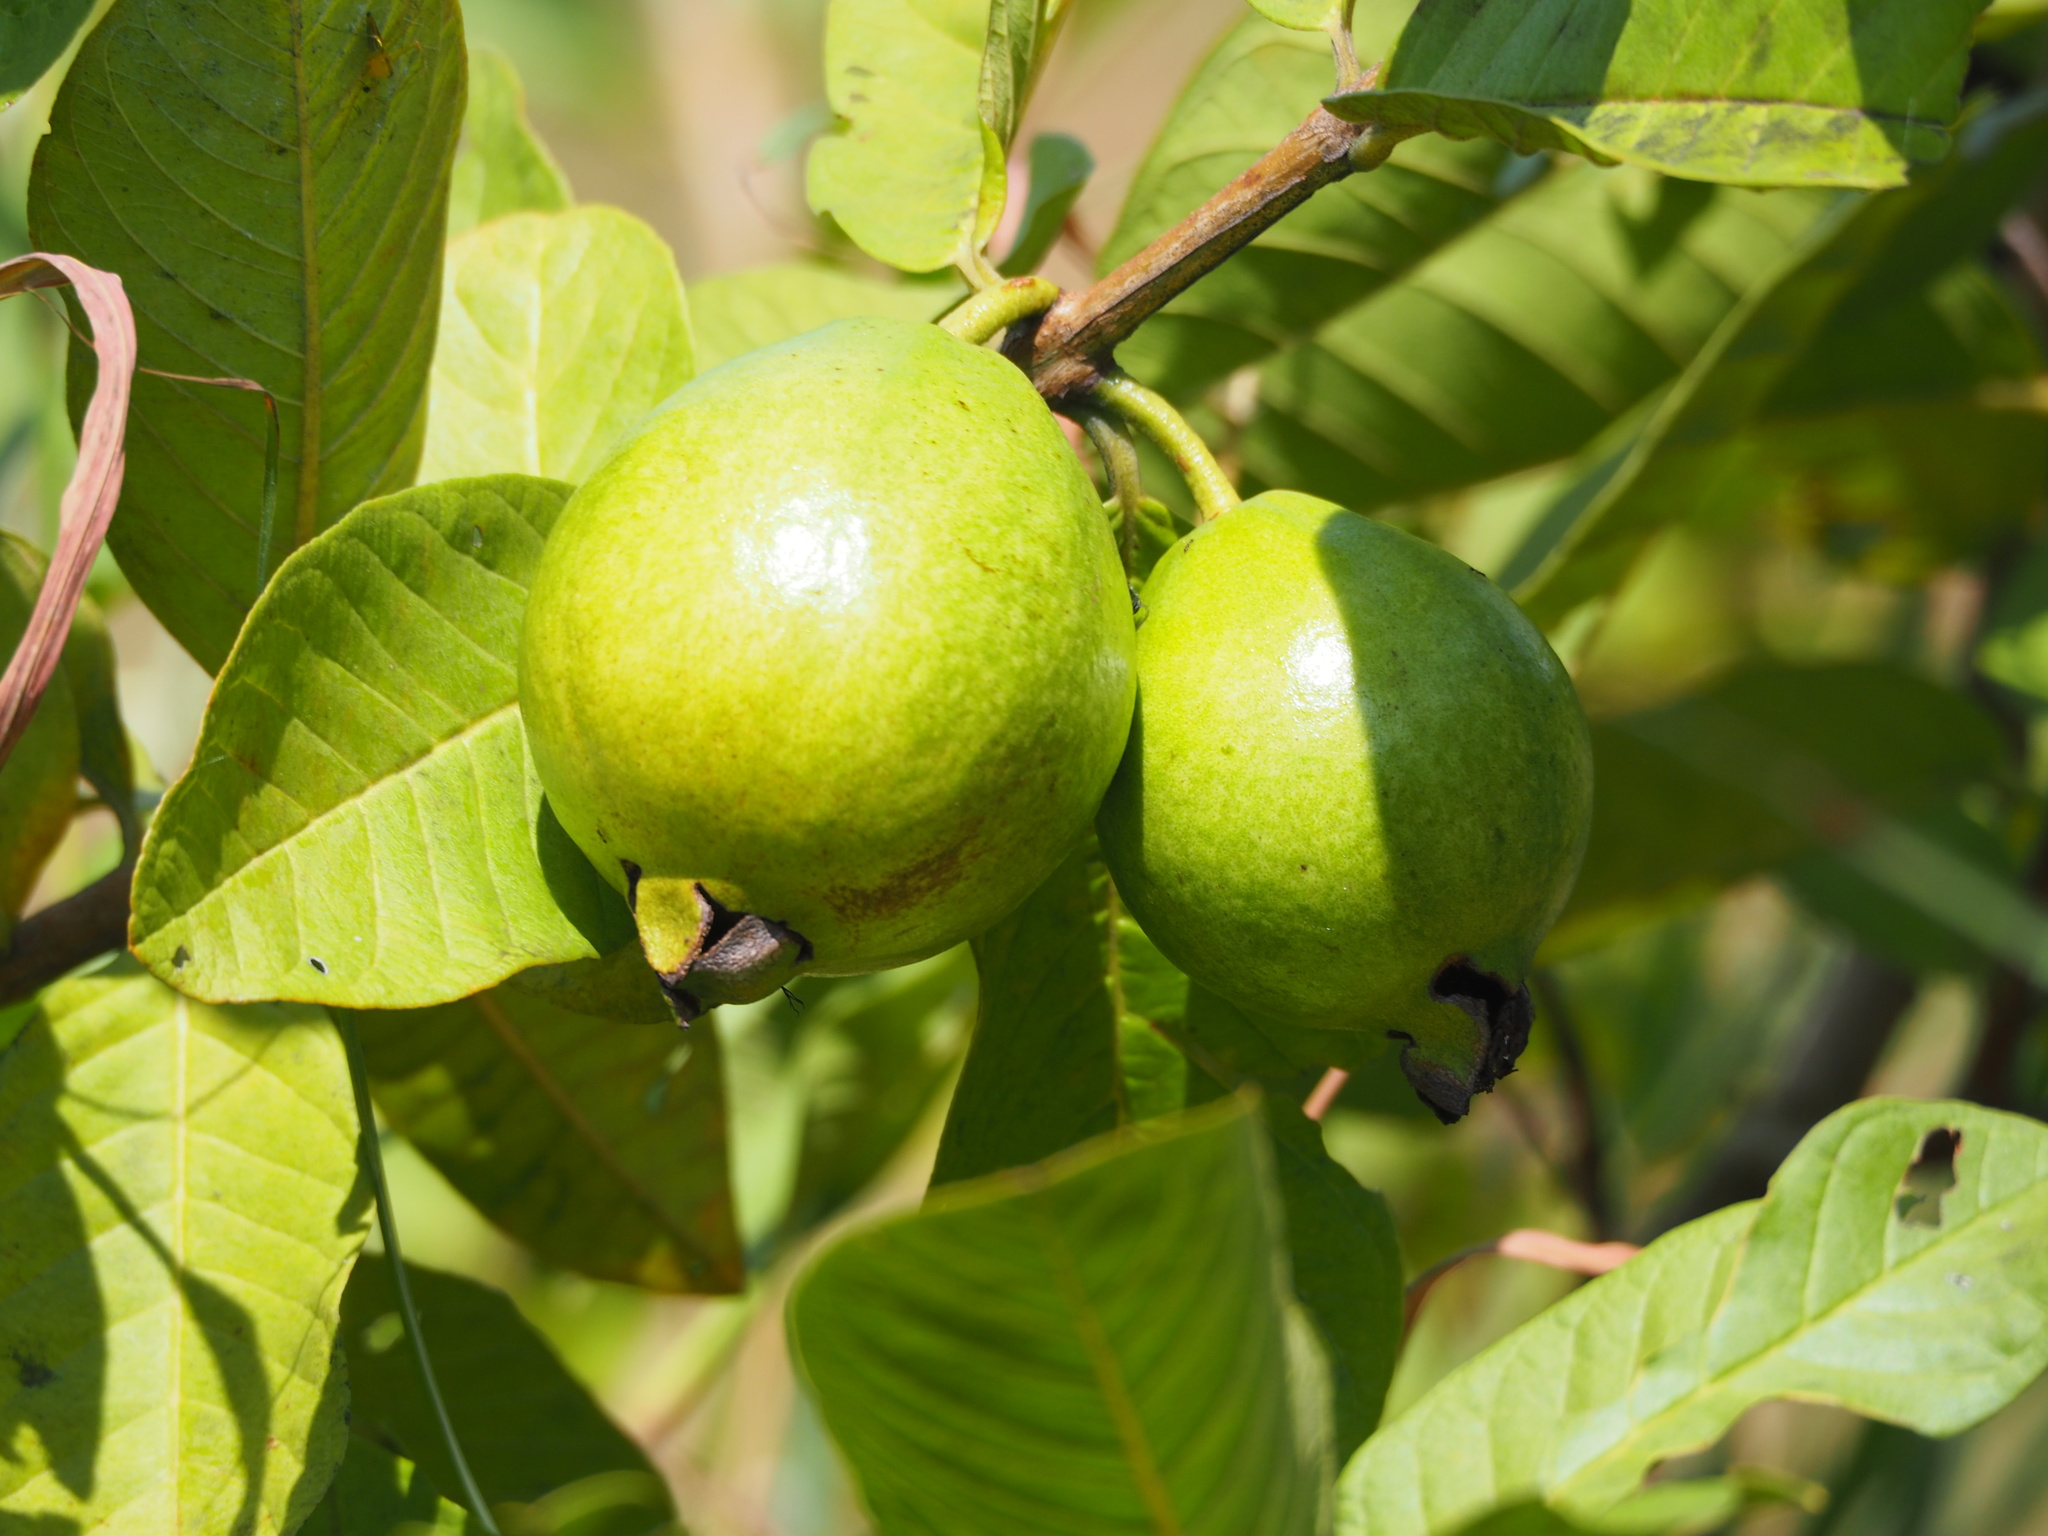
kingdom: Plantae
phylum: Tracheophyta
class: Magnoliopsida
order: Myrtales
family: Myrtaceae
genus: Psidium
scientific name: Psidium guajava
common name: Guava
